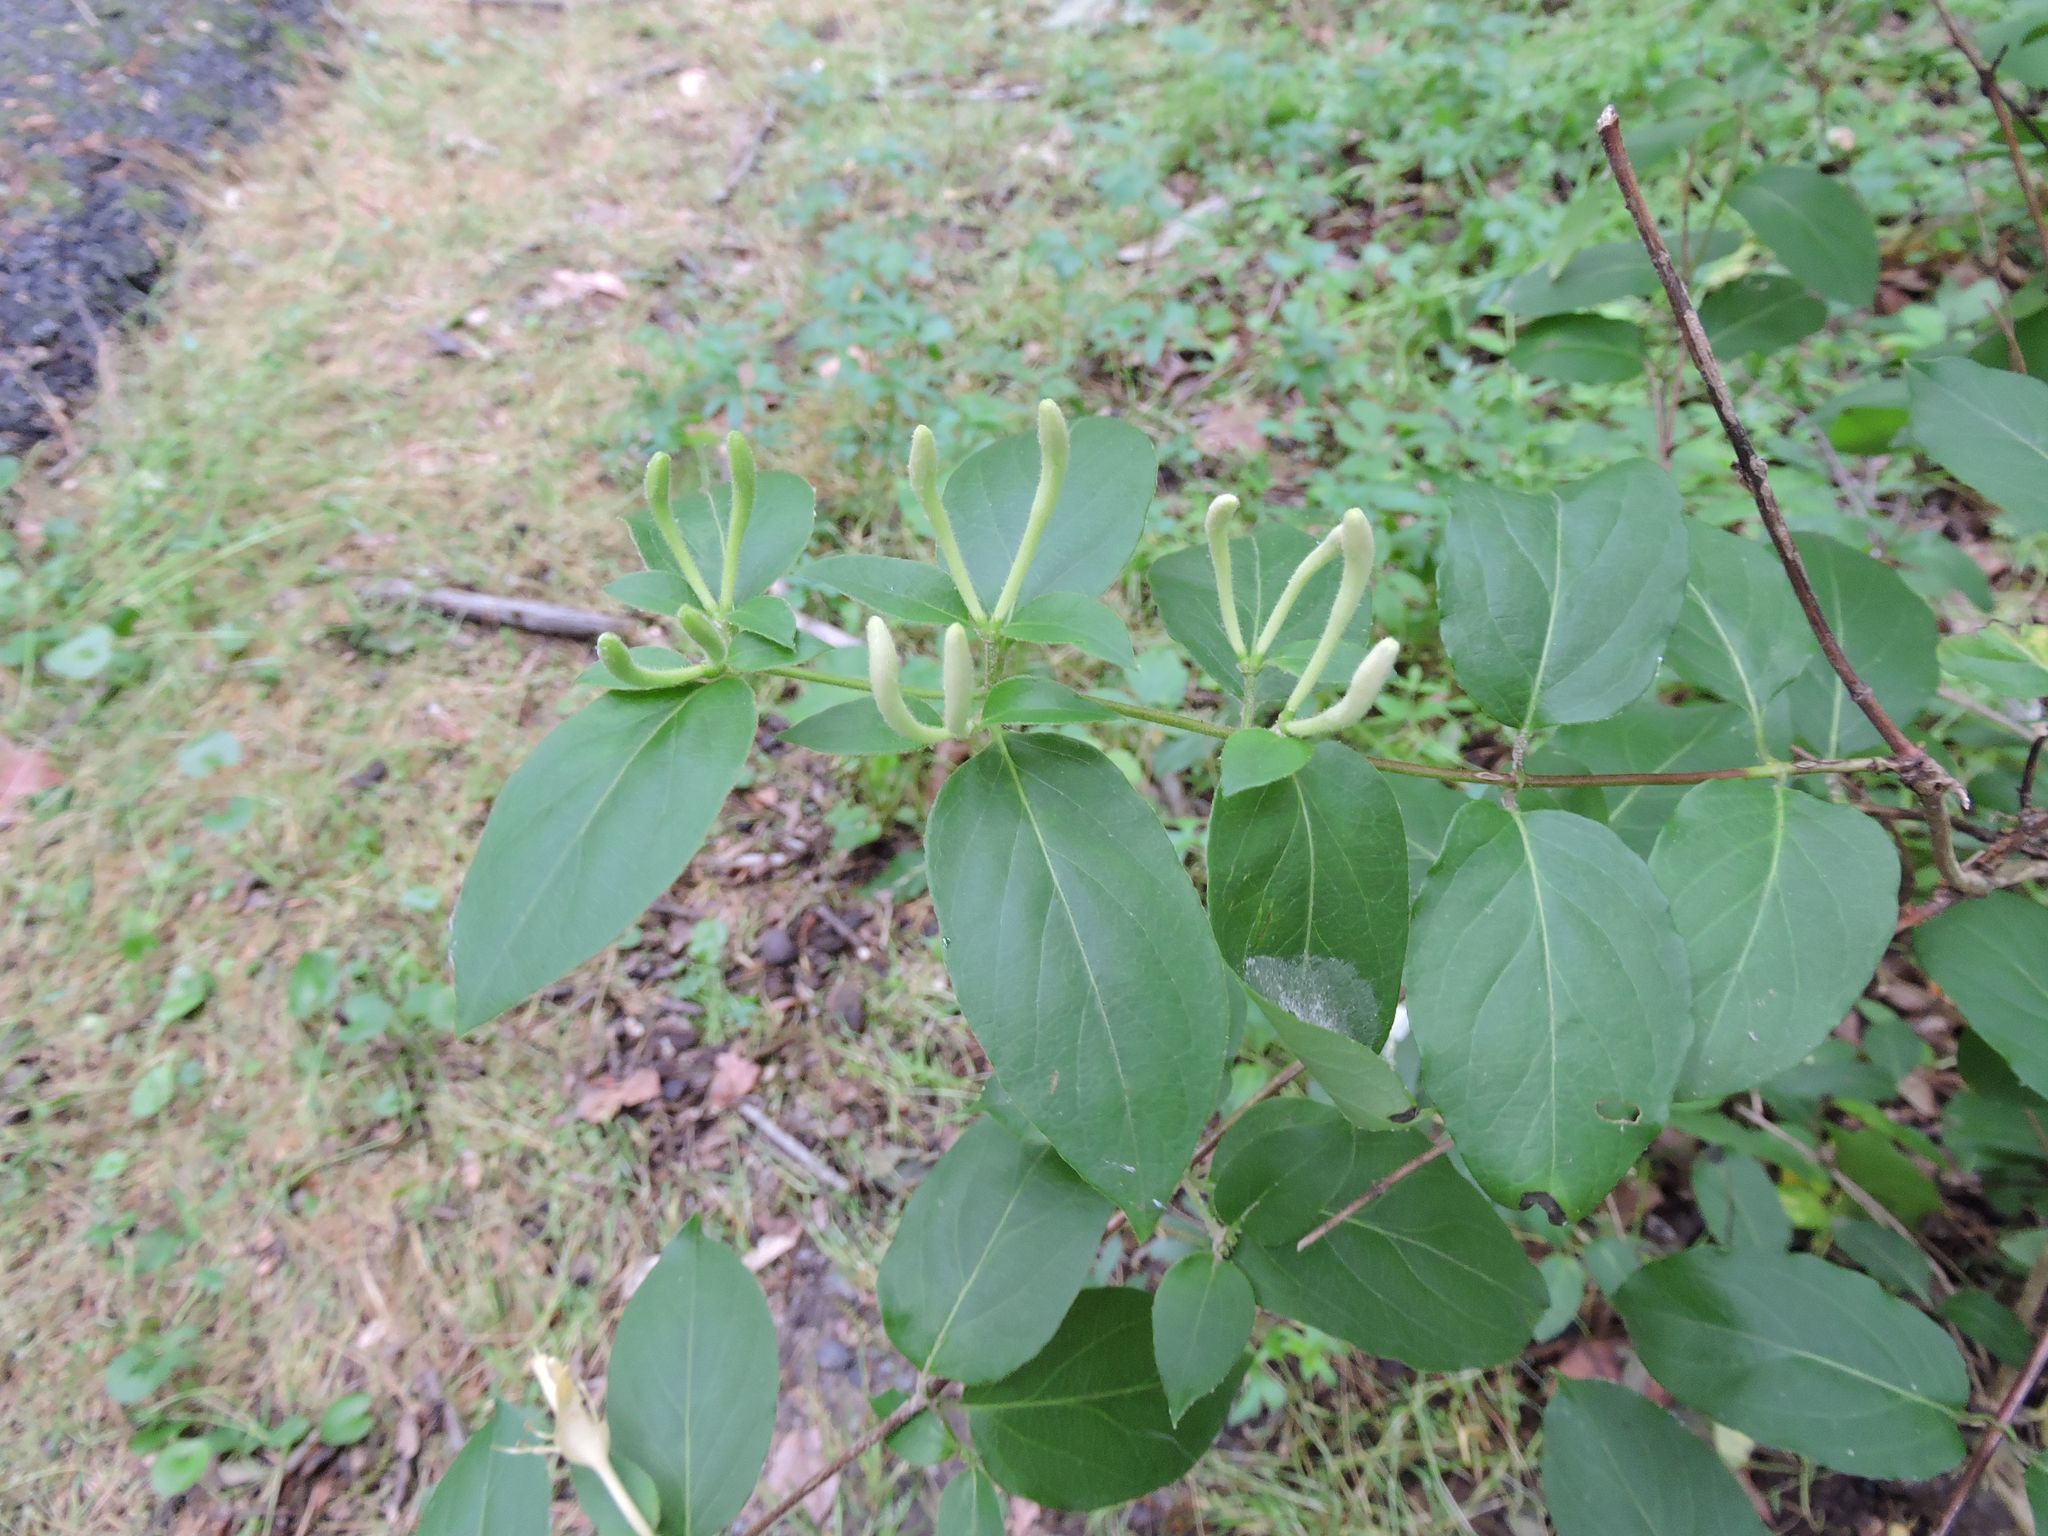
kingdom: Plantae
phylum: Tracheophyta
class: Magnoliopsida
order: Dipsacales
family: Caprifoliaceae
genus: Lonicera
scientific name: Lonicera japonica
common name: Japanese honeysuckle
